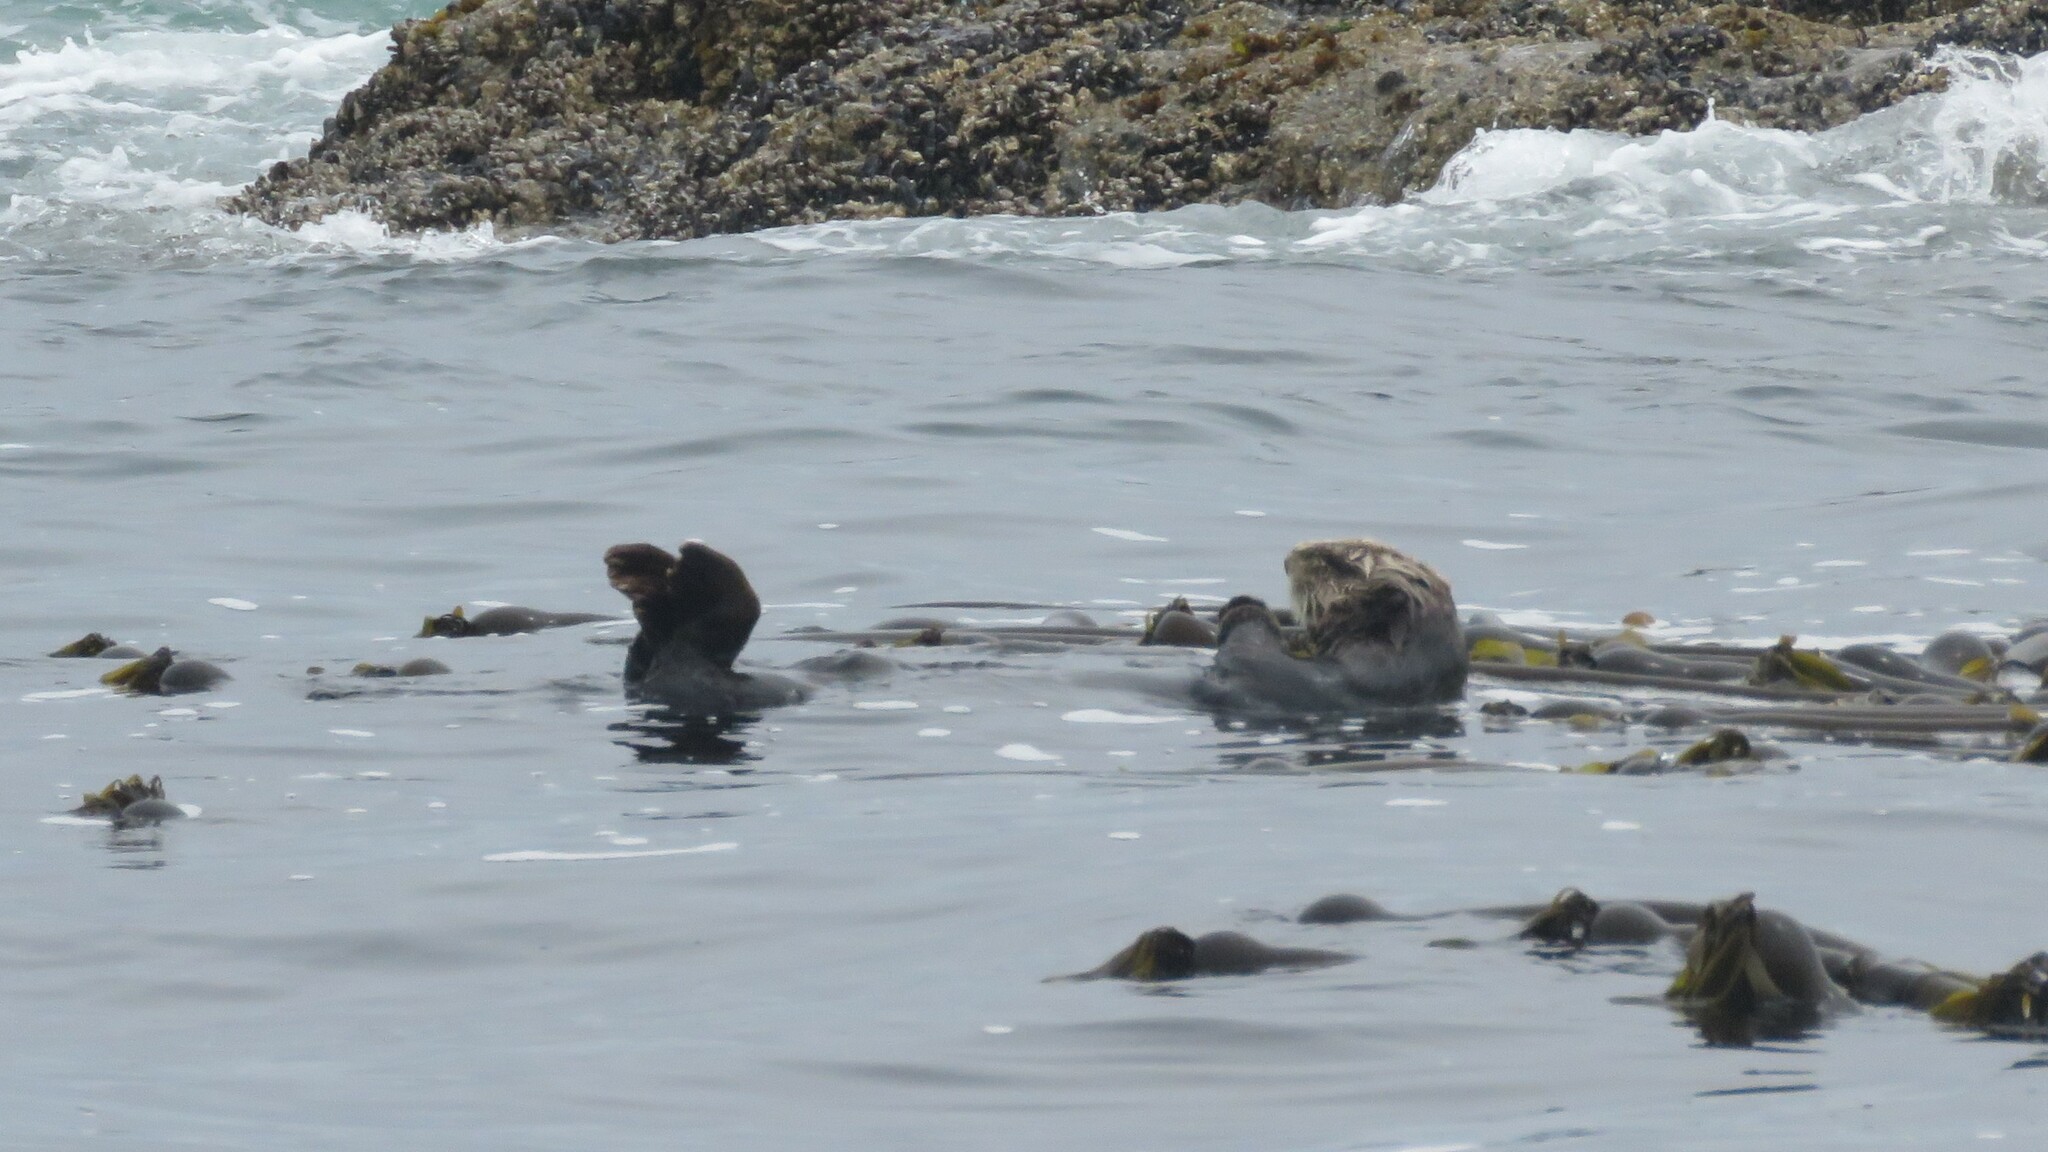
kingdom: Animalia
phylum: Chordata
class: Mammalia
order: Carnivora
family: Mustelidae
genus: Enhydra
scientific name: Enhydra lutris
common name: Sea otter
